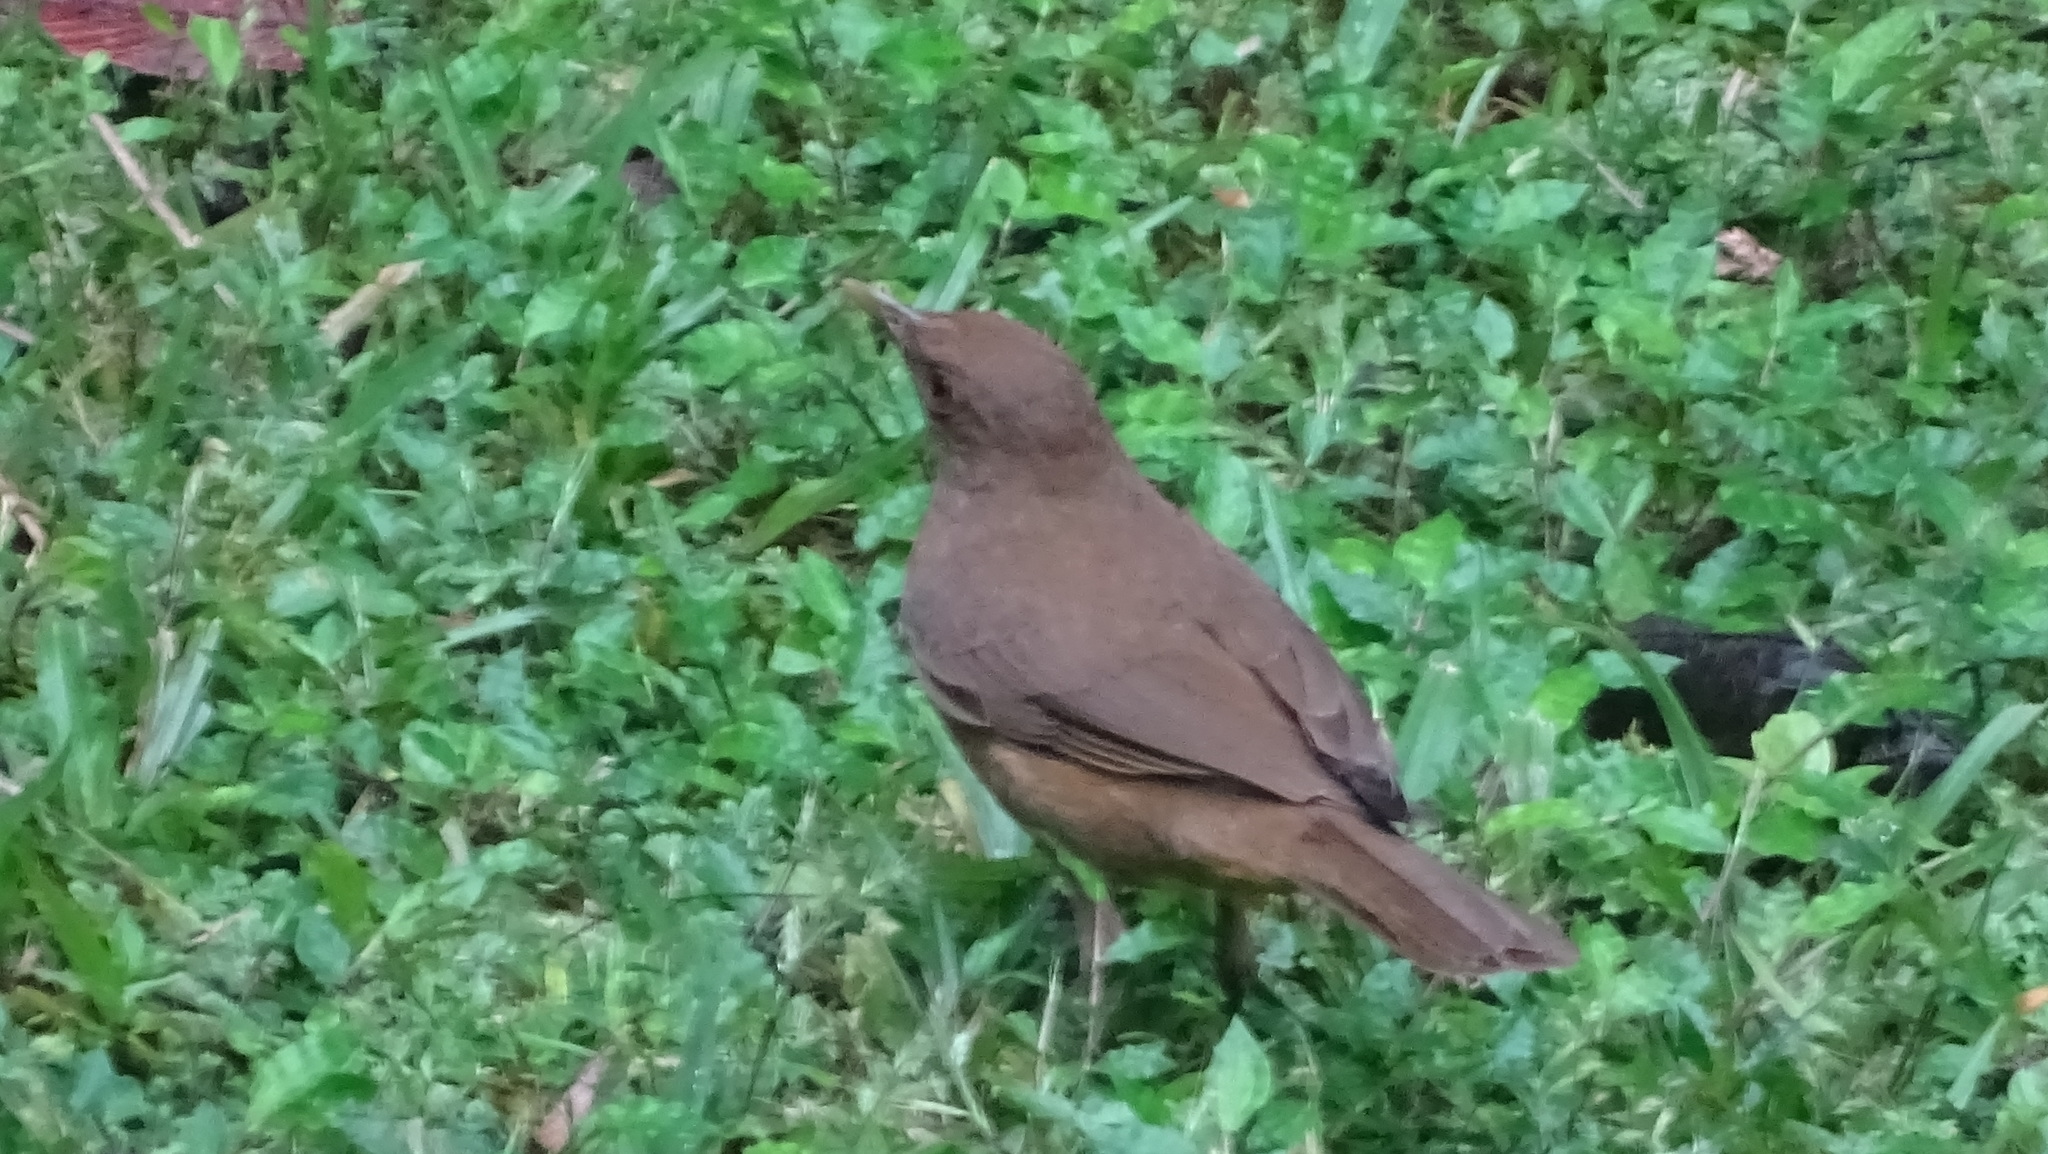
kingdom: Animalia
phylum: Chordata
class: Aves
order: Passeriformes
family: Turdidae
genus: Turdus
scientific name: Turdus grayi
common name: Clay-colored thrush
